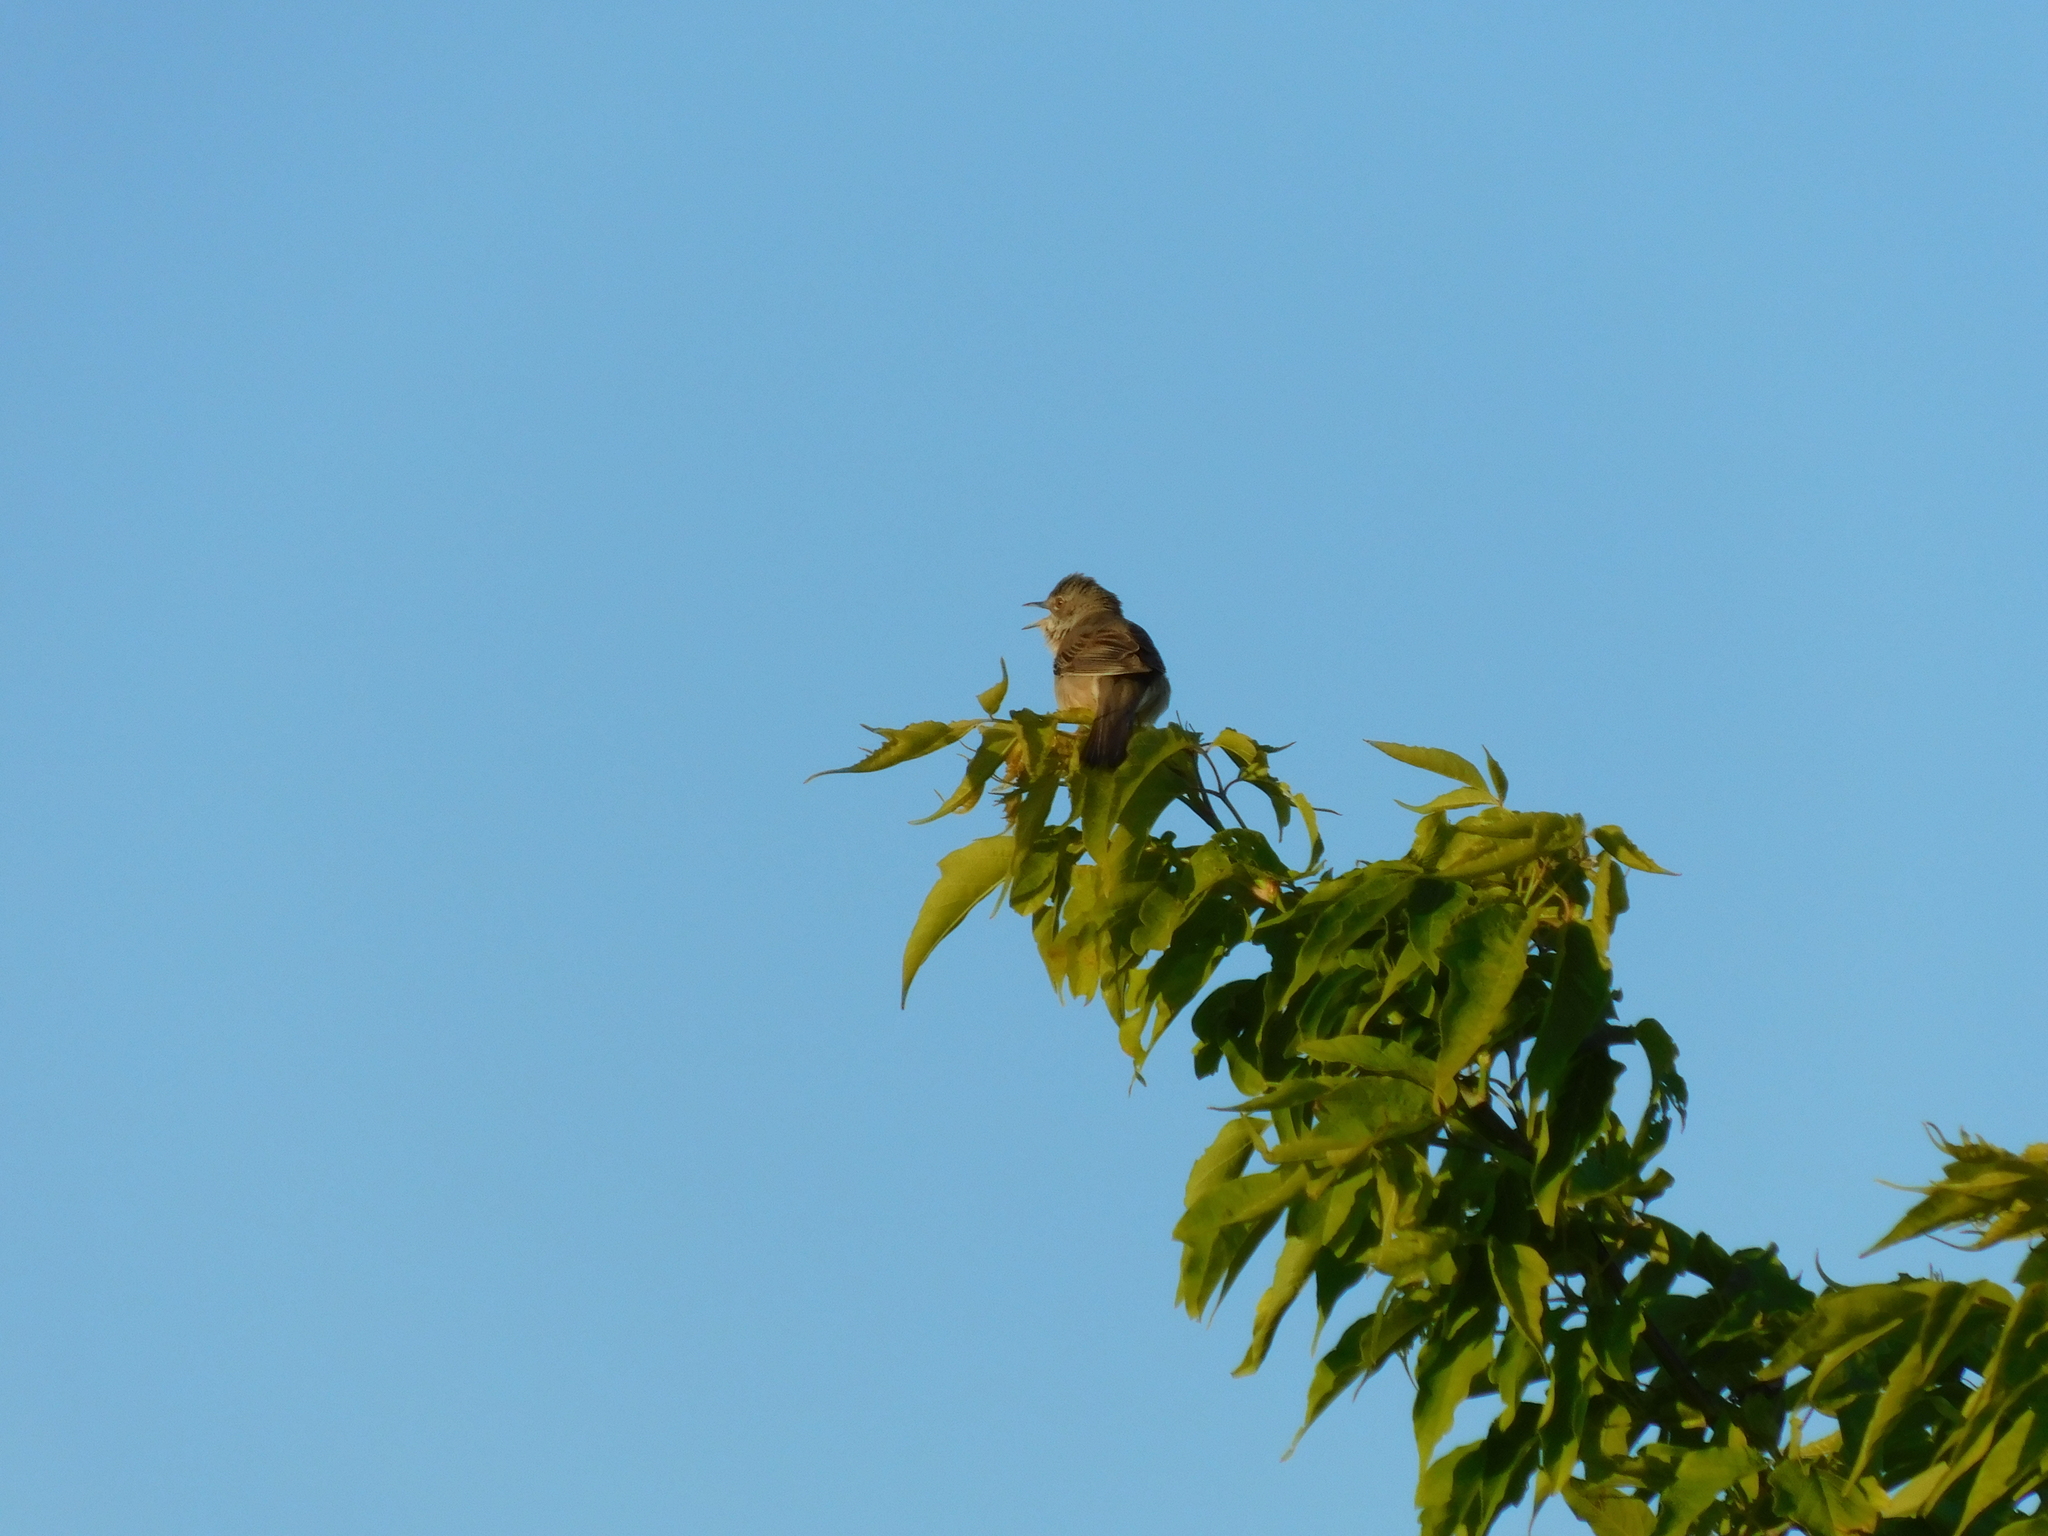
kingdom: Animalia
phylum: Chordata
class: Aves
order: Passeriformes
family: Sylviidae
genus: Sylvia
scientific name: Sylvia communis
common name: Common whitethroat
